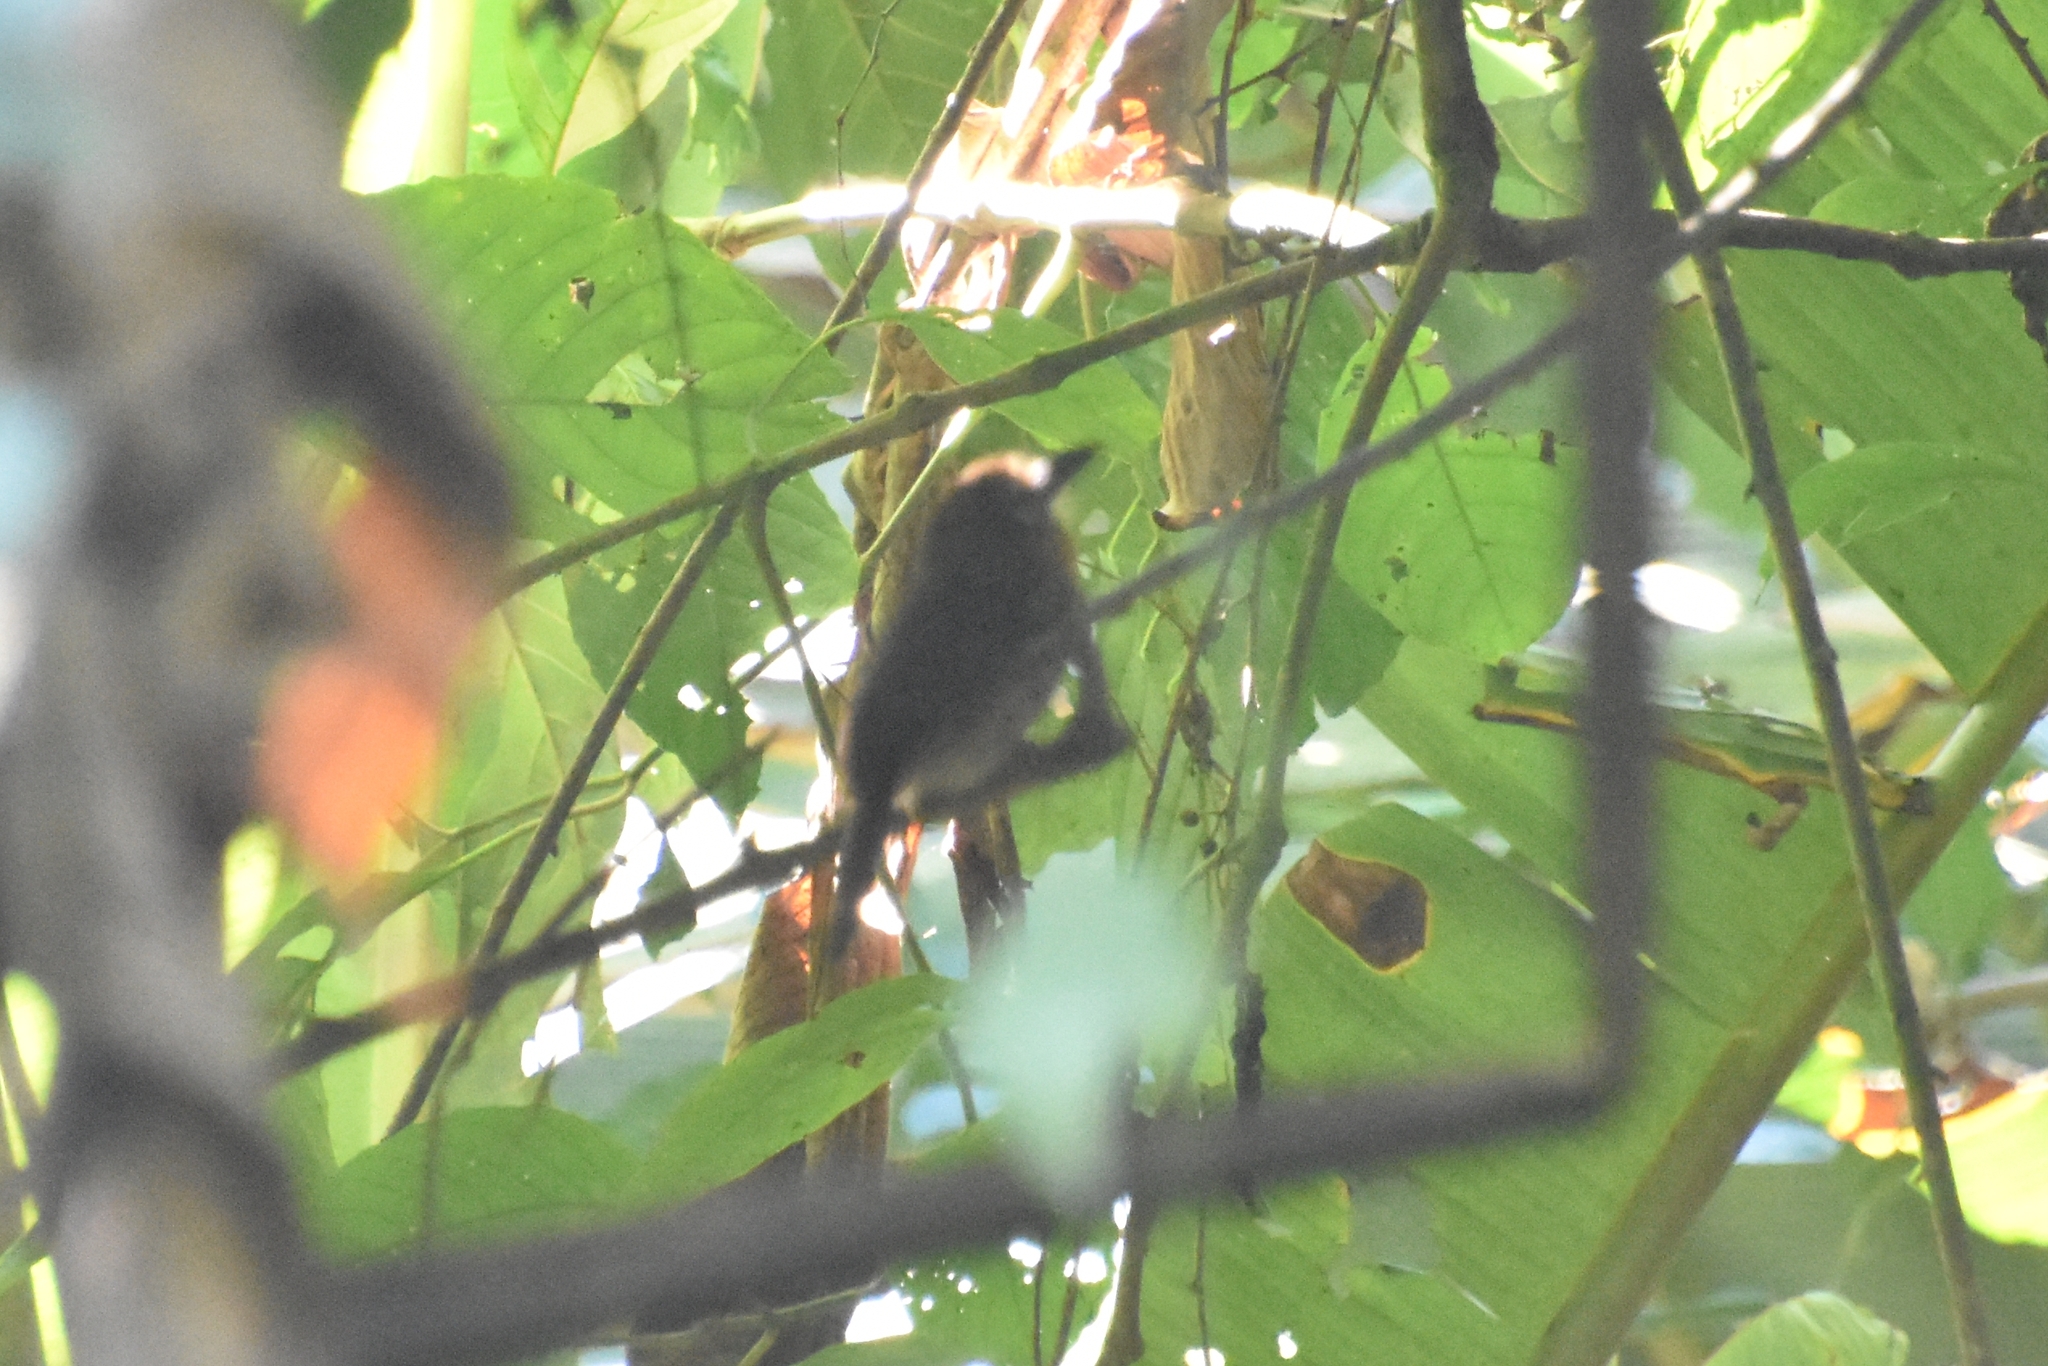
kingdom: Animalia
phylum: Chordata
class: Aves
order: Piciformes
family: Bucconidae
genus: Malacoptila
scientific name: Malacoptila panamensis
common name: White-whiskered puffbird
